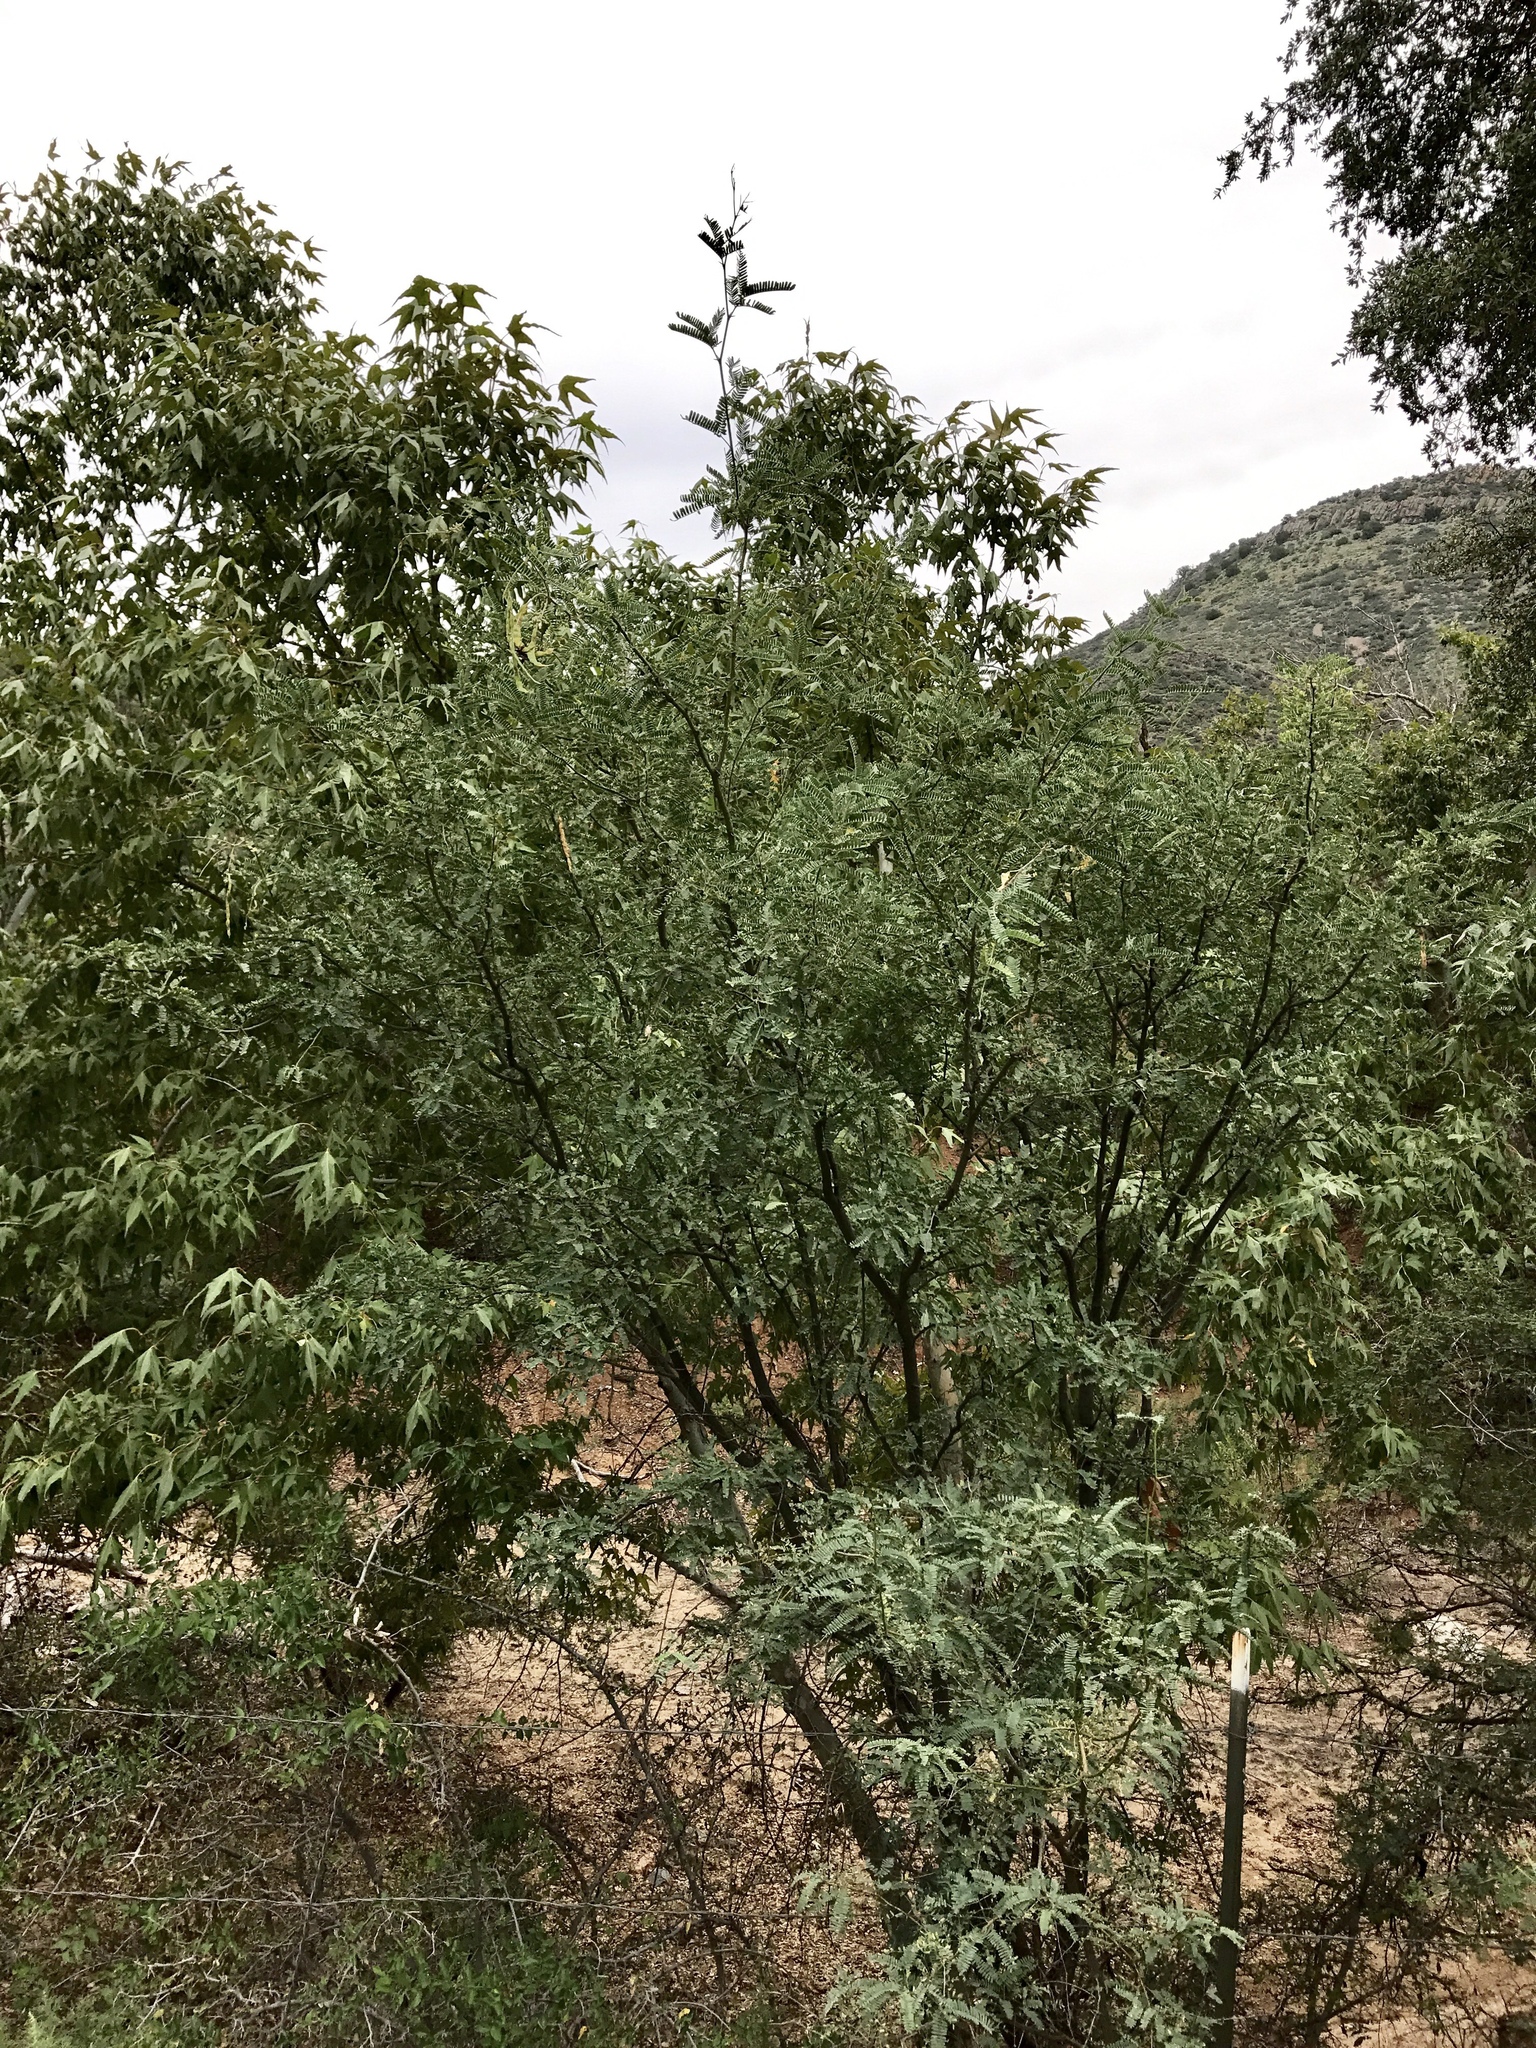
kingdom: Plantae
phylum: Tracheophyta
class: Magnoliopsida
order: Fabales
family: Fabaceae
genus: Prosopis
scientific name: Prosopis velutina
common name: Velvet mesquite
